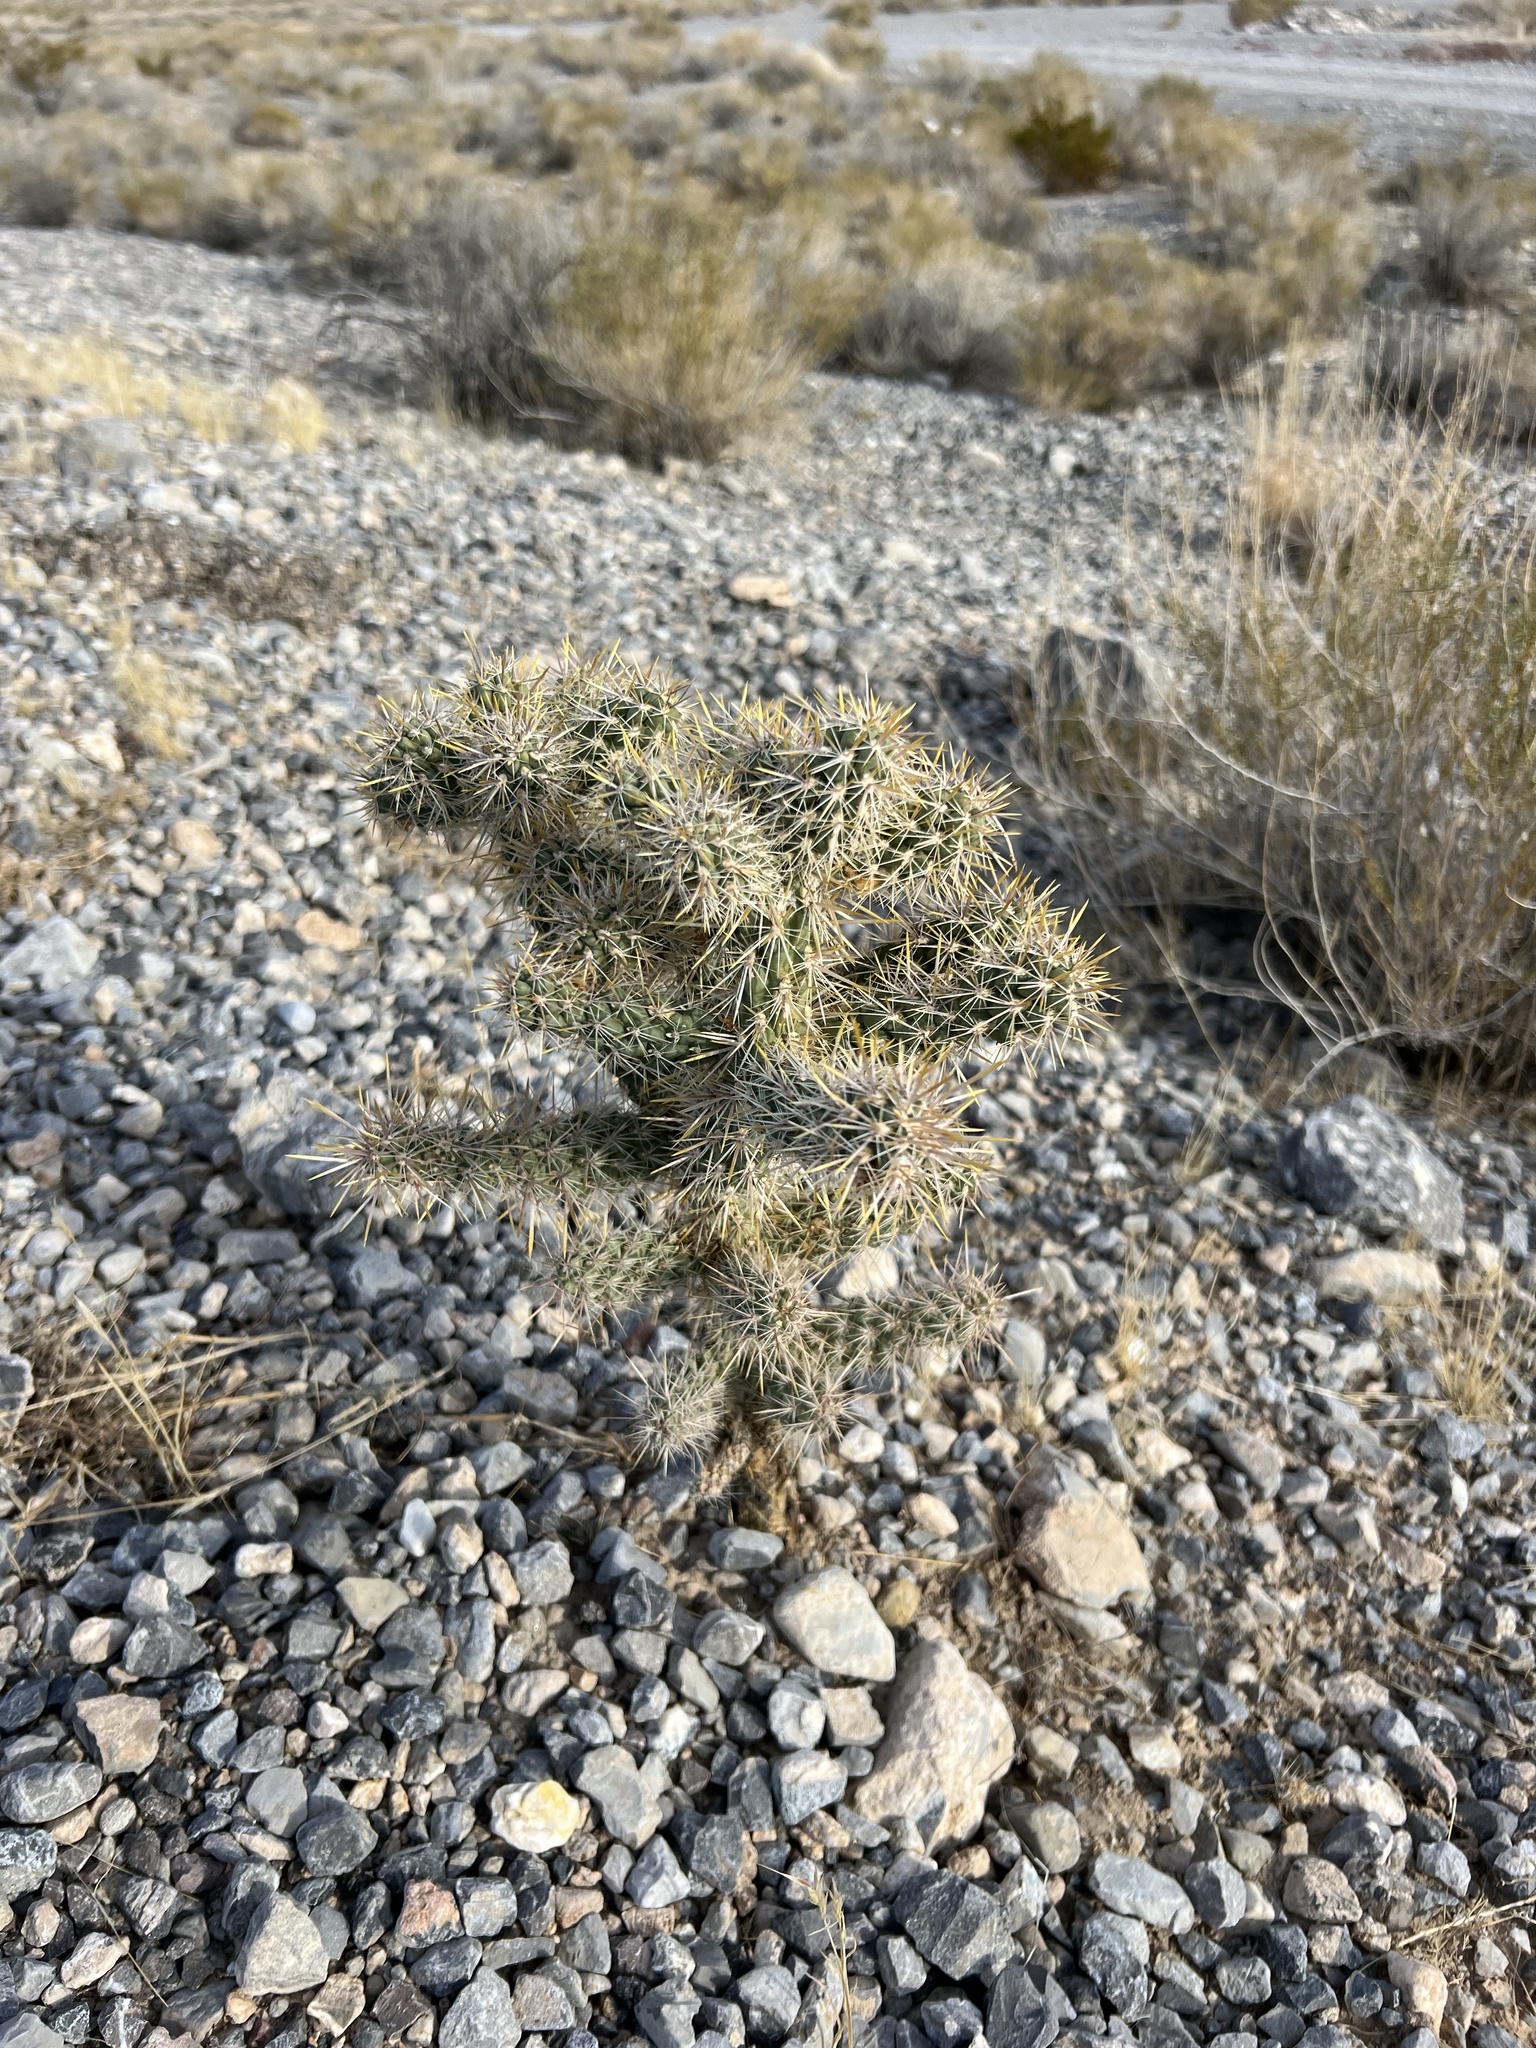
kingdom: Plantae
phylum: Tracheophyta
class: Magnoliopsida
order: Caryophyllales
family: Cactaceae
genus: Cylindropuntia
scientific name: Cylindropuntia echinocarpa
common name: Ground cholla
